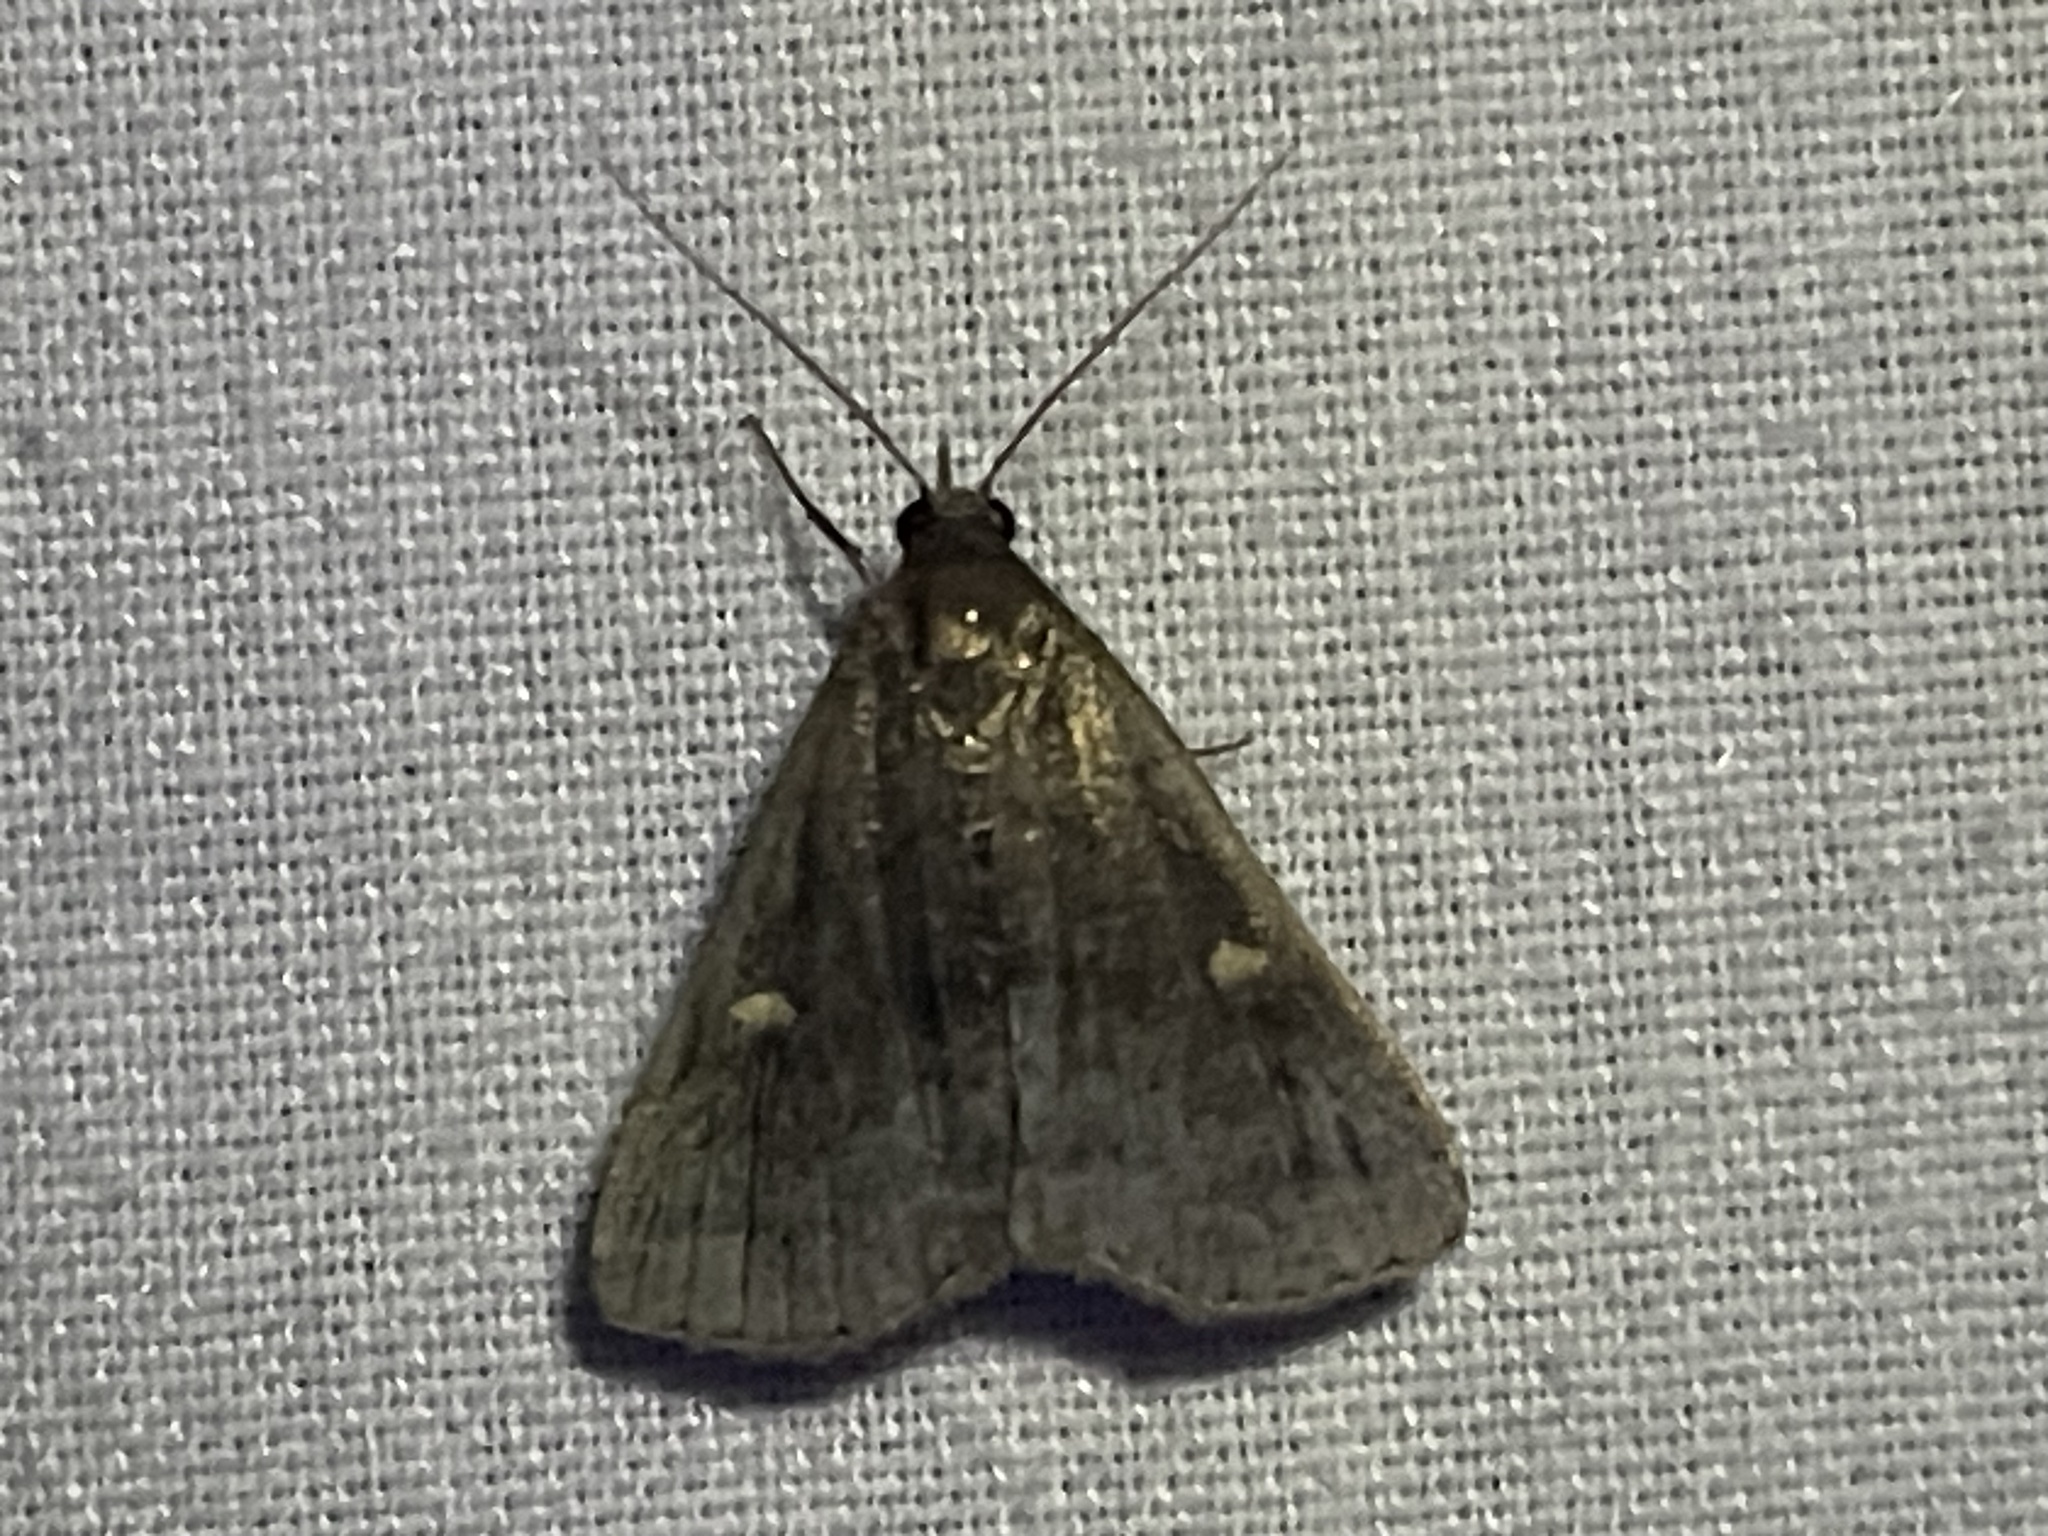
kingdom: Animalia
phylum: Arthropoda
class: Insecta
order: Lepidoptera
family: Erebidae
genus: Tetanolita
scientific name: Tetanolita mynesalis
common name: Smoky tetanolita moth
